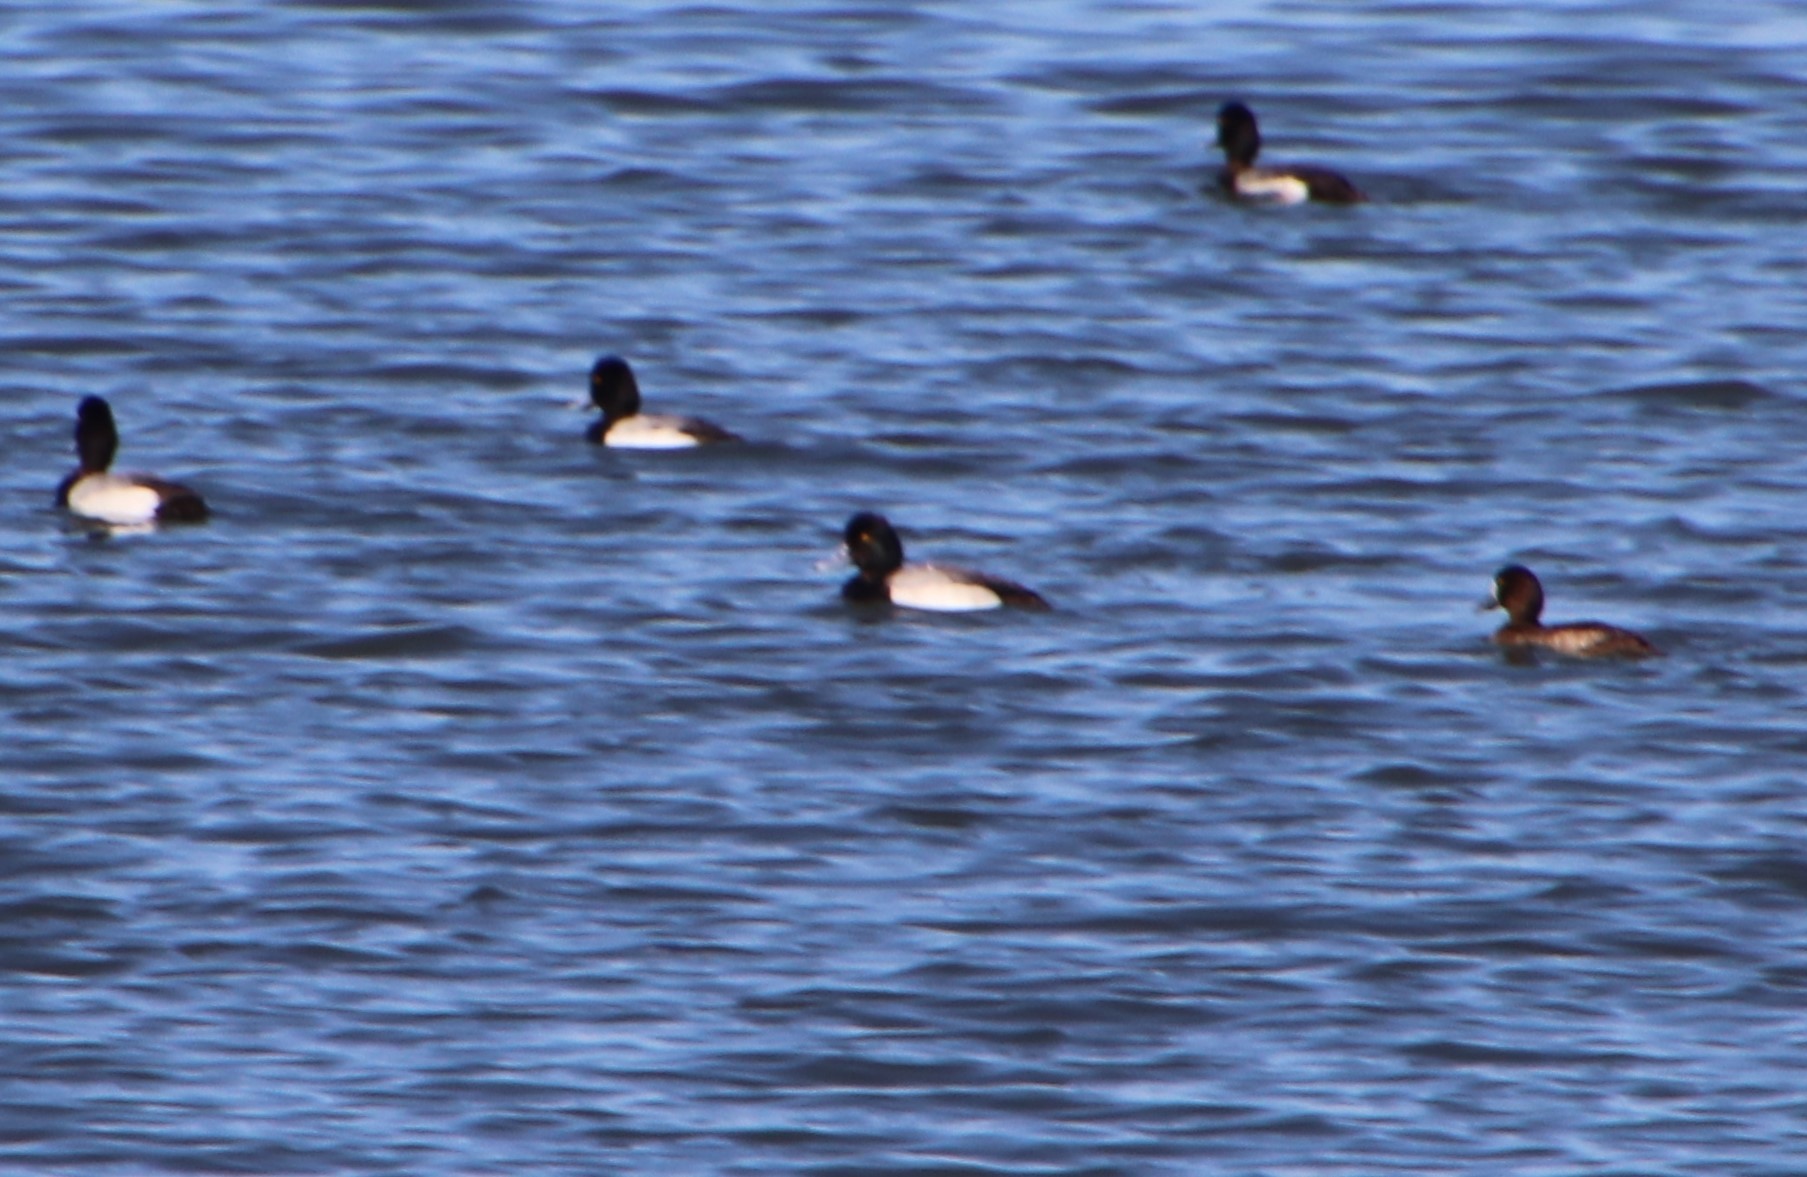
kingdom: Animalia
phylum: Chordata
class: Aves
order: Anseriformes
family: Anatidae
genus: Aythya
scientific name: Aythya marila
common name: Greater scaup
